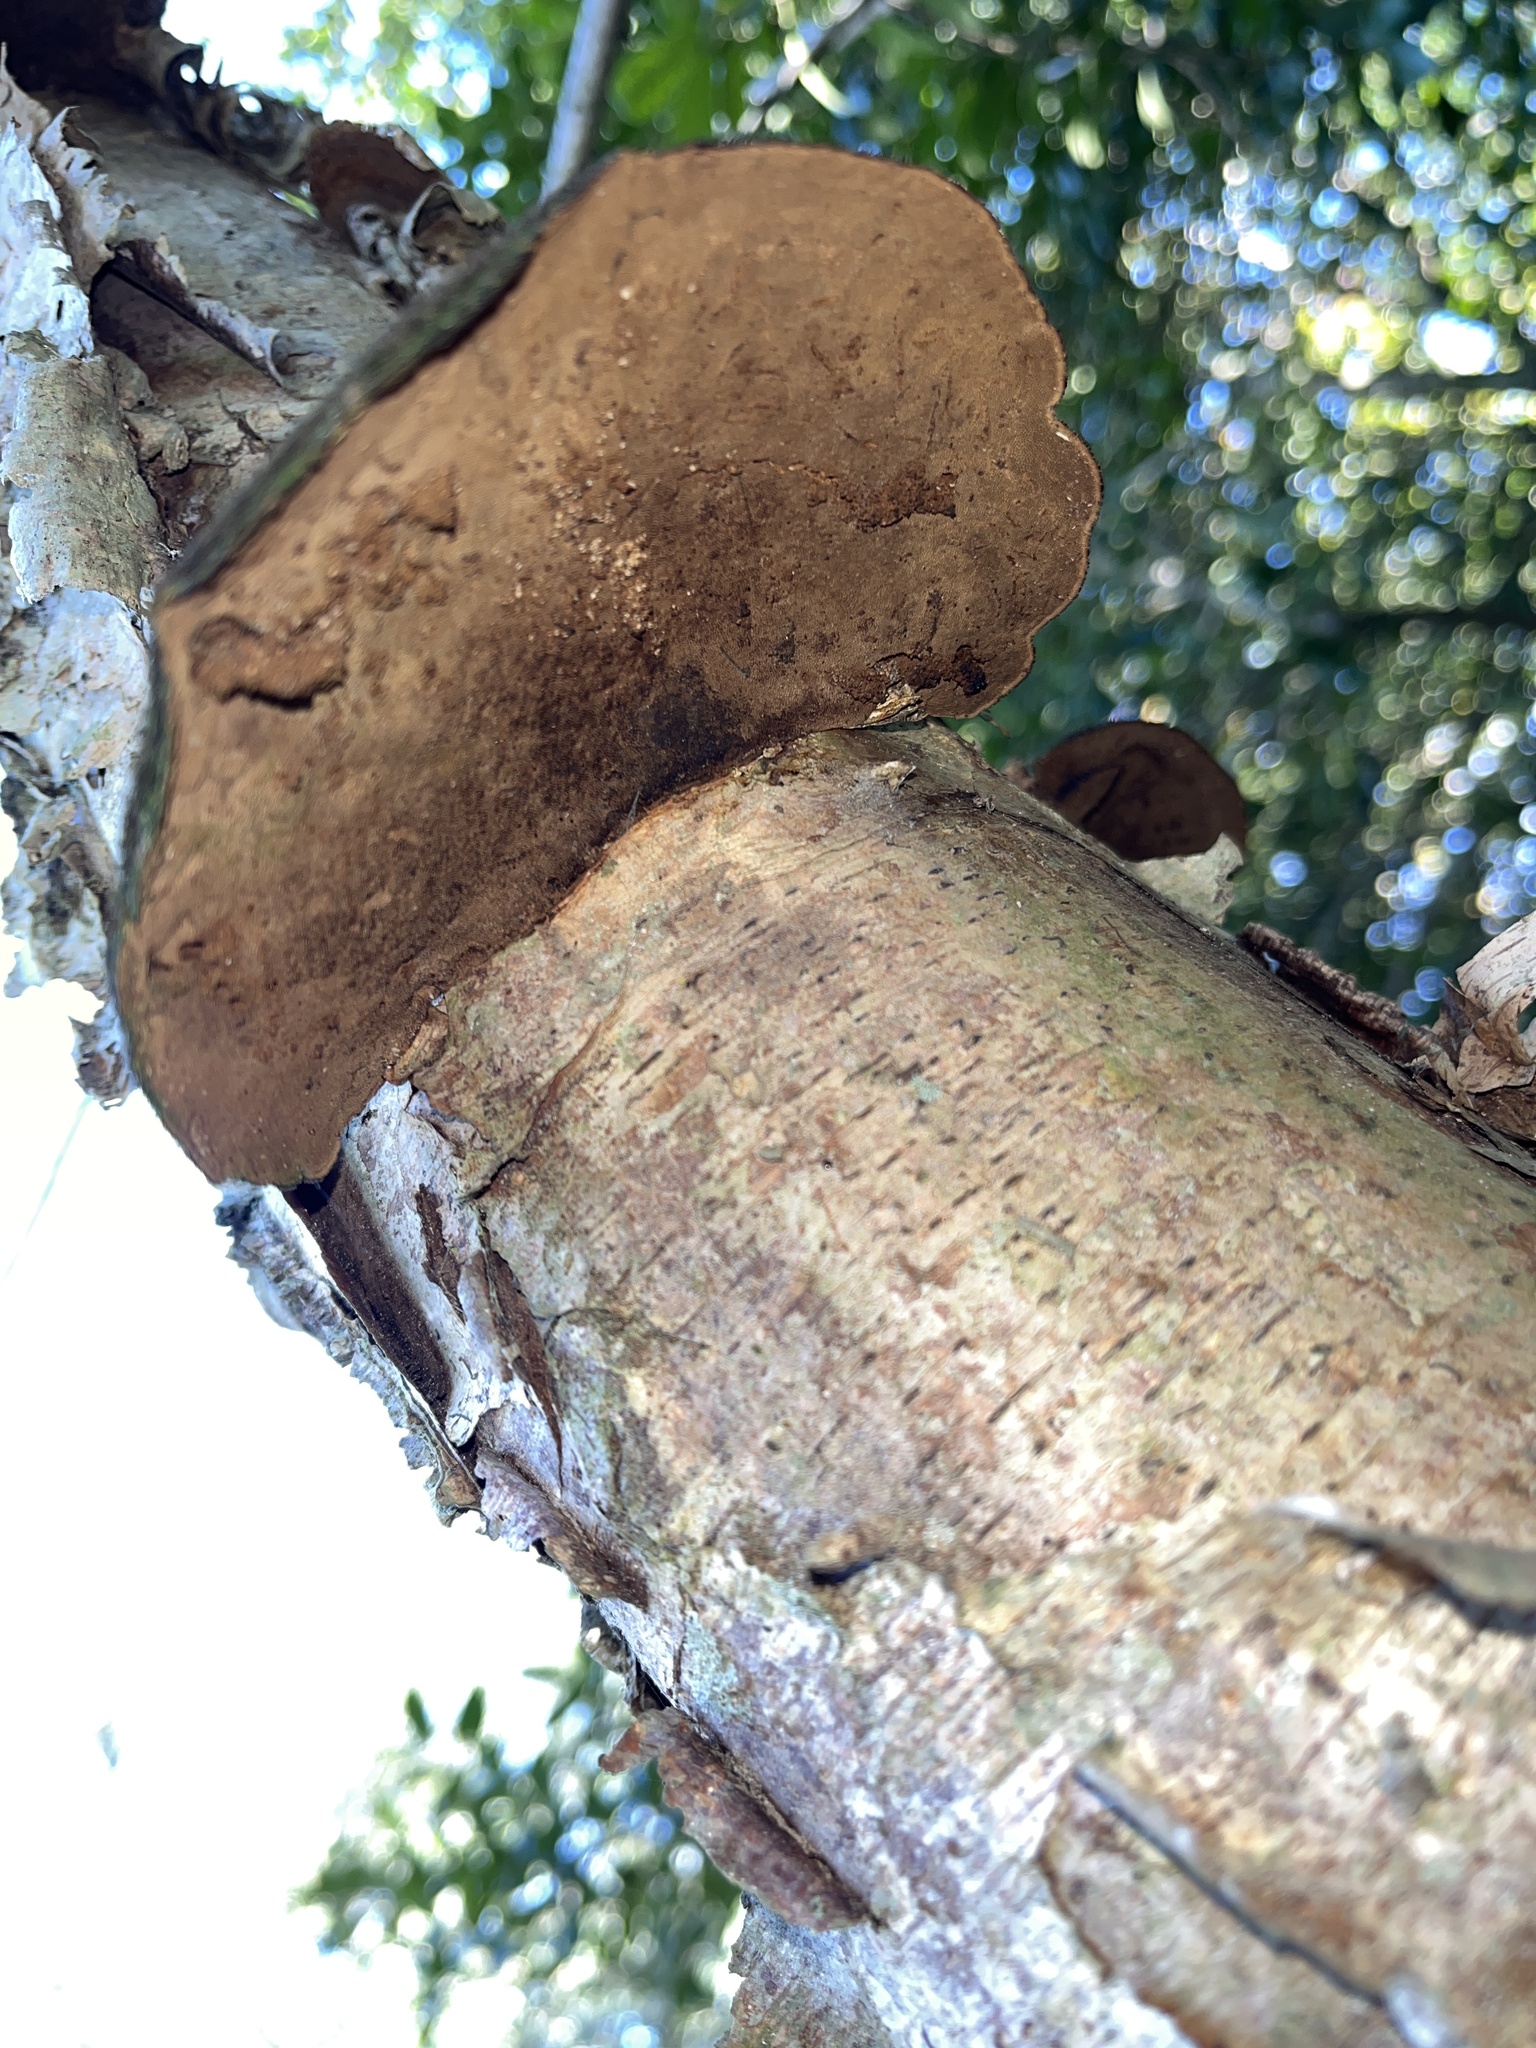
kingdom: Fungi
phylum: Basidiomycota
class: Agaricomycetes
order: Polyporales
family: Cerrenaceae
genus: Cerrena
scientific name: Cerrena hydnoides
